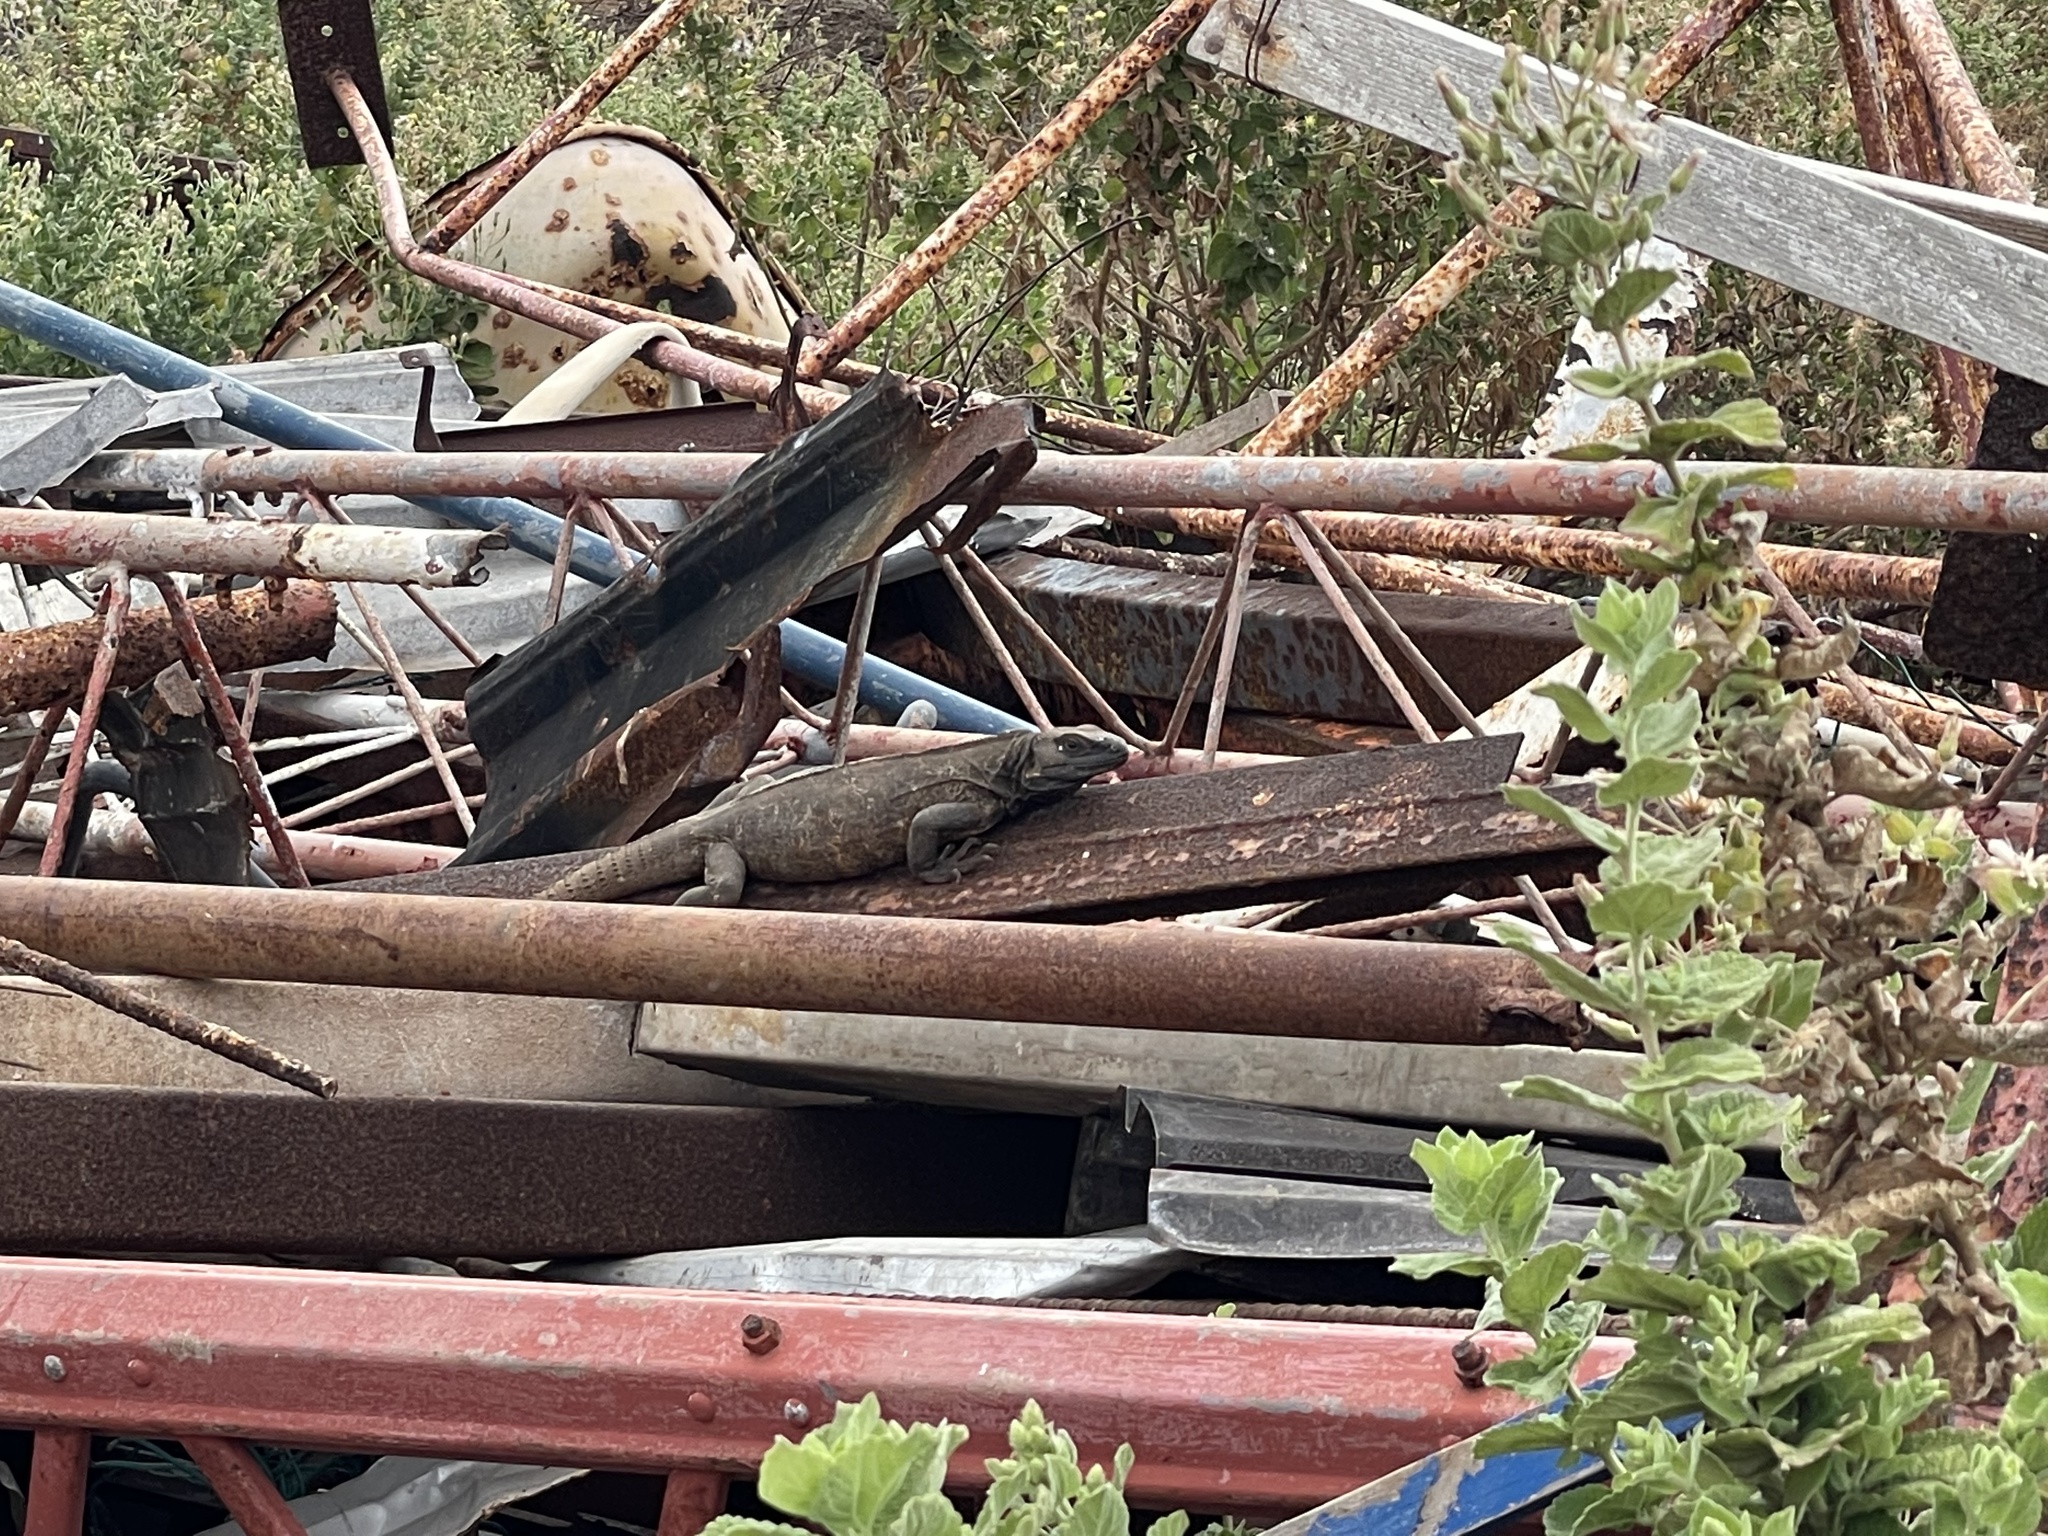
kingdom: Animalia
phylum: Chordata
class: Squamata
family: Iguanidae
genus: Ctenosaura
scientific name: Ctenosaura pectinata
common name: Guerreran spiny-tailed iguana
